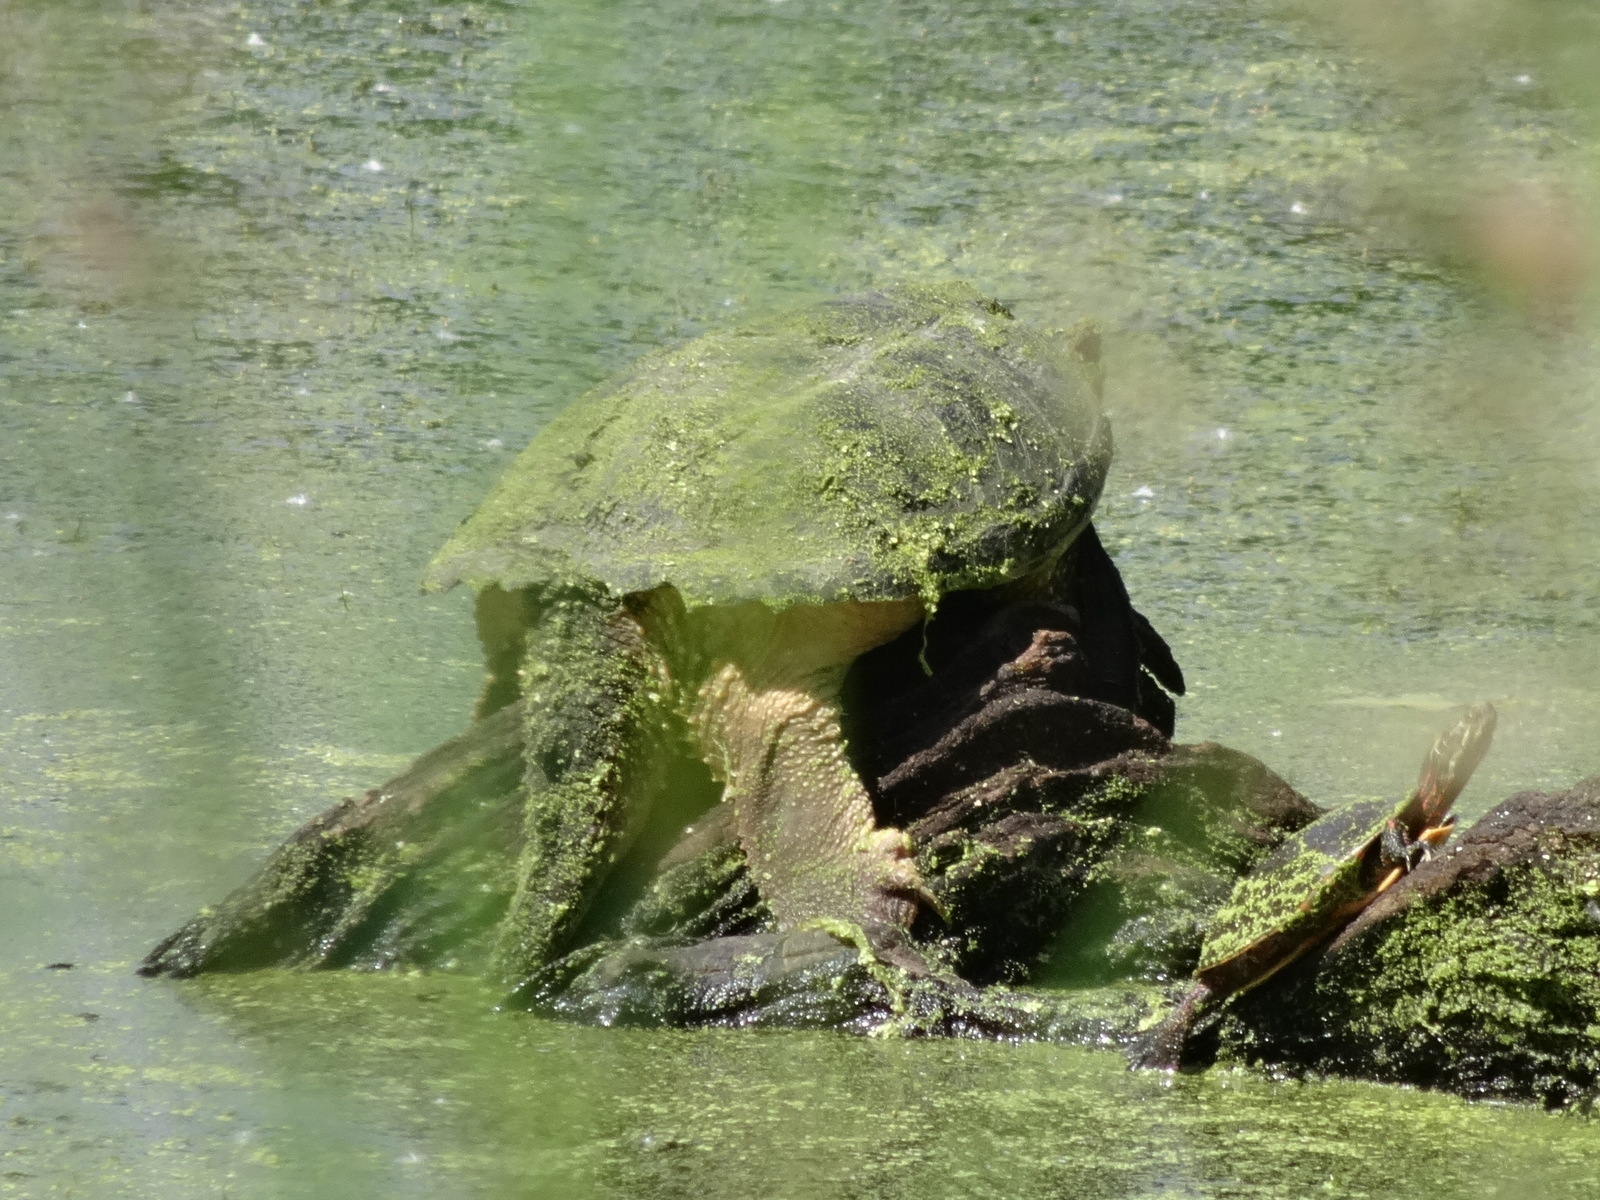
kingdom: Animalia
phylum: Chordata
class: Testudines
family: Chelydridae
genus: Chelydra
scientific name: Chelydra serpentina
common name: Common snapping turtle
